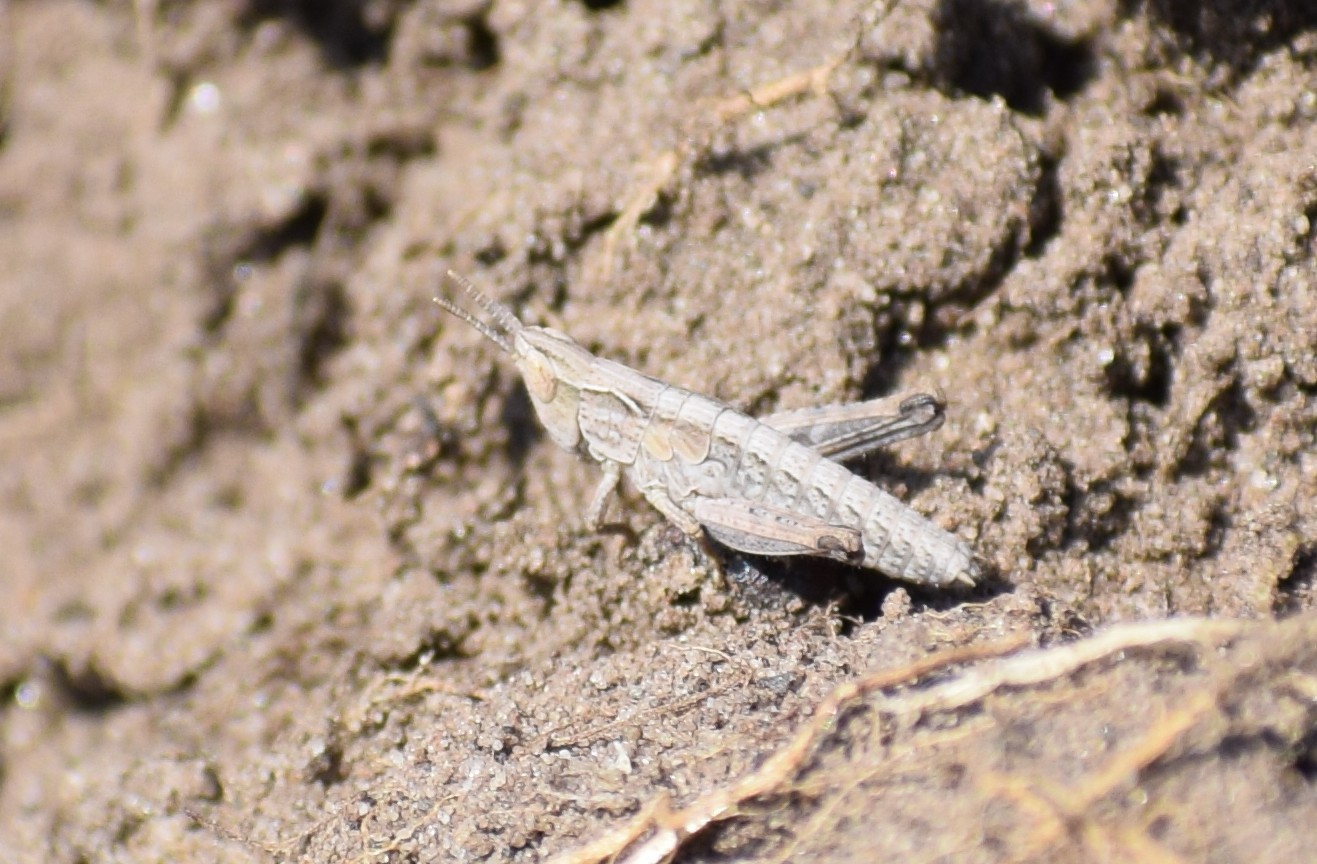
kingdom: Animalia
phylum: Arthropoda
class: Insecta
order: Orthoptera
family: Acrididae
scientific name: Acrididae
